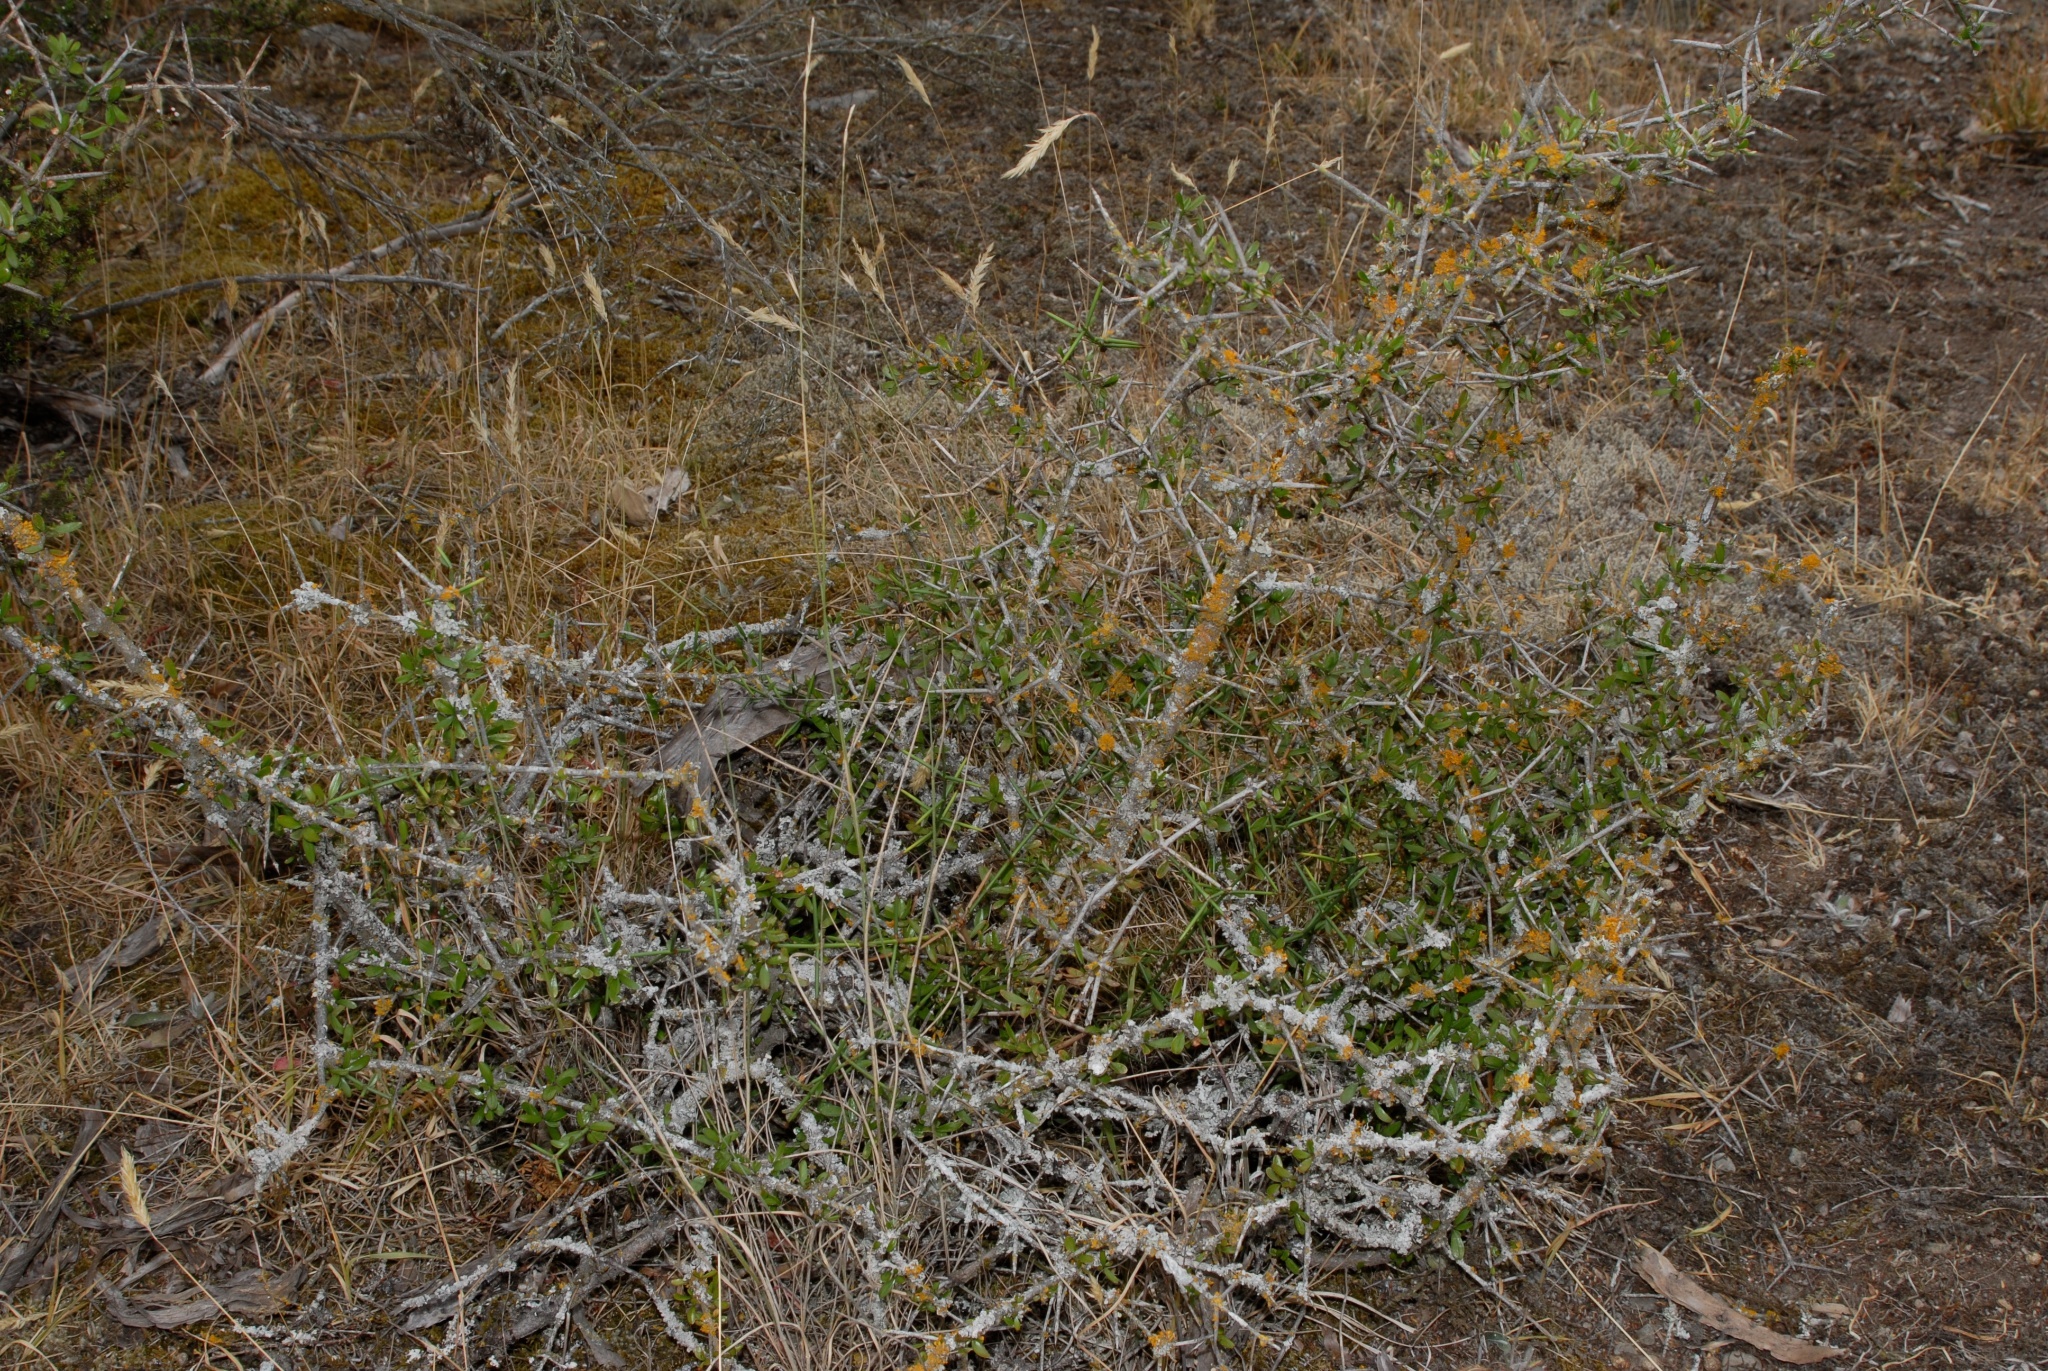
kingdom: Plantae
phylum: Tracheophyta
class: Magnoliopsida
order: Rosales
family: Rhamnaceae
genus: Discaria
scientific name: Discaria toumatou
